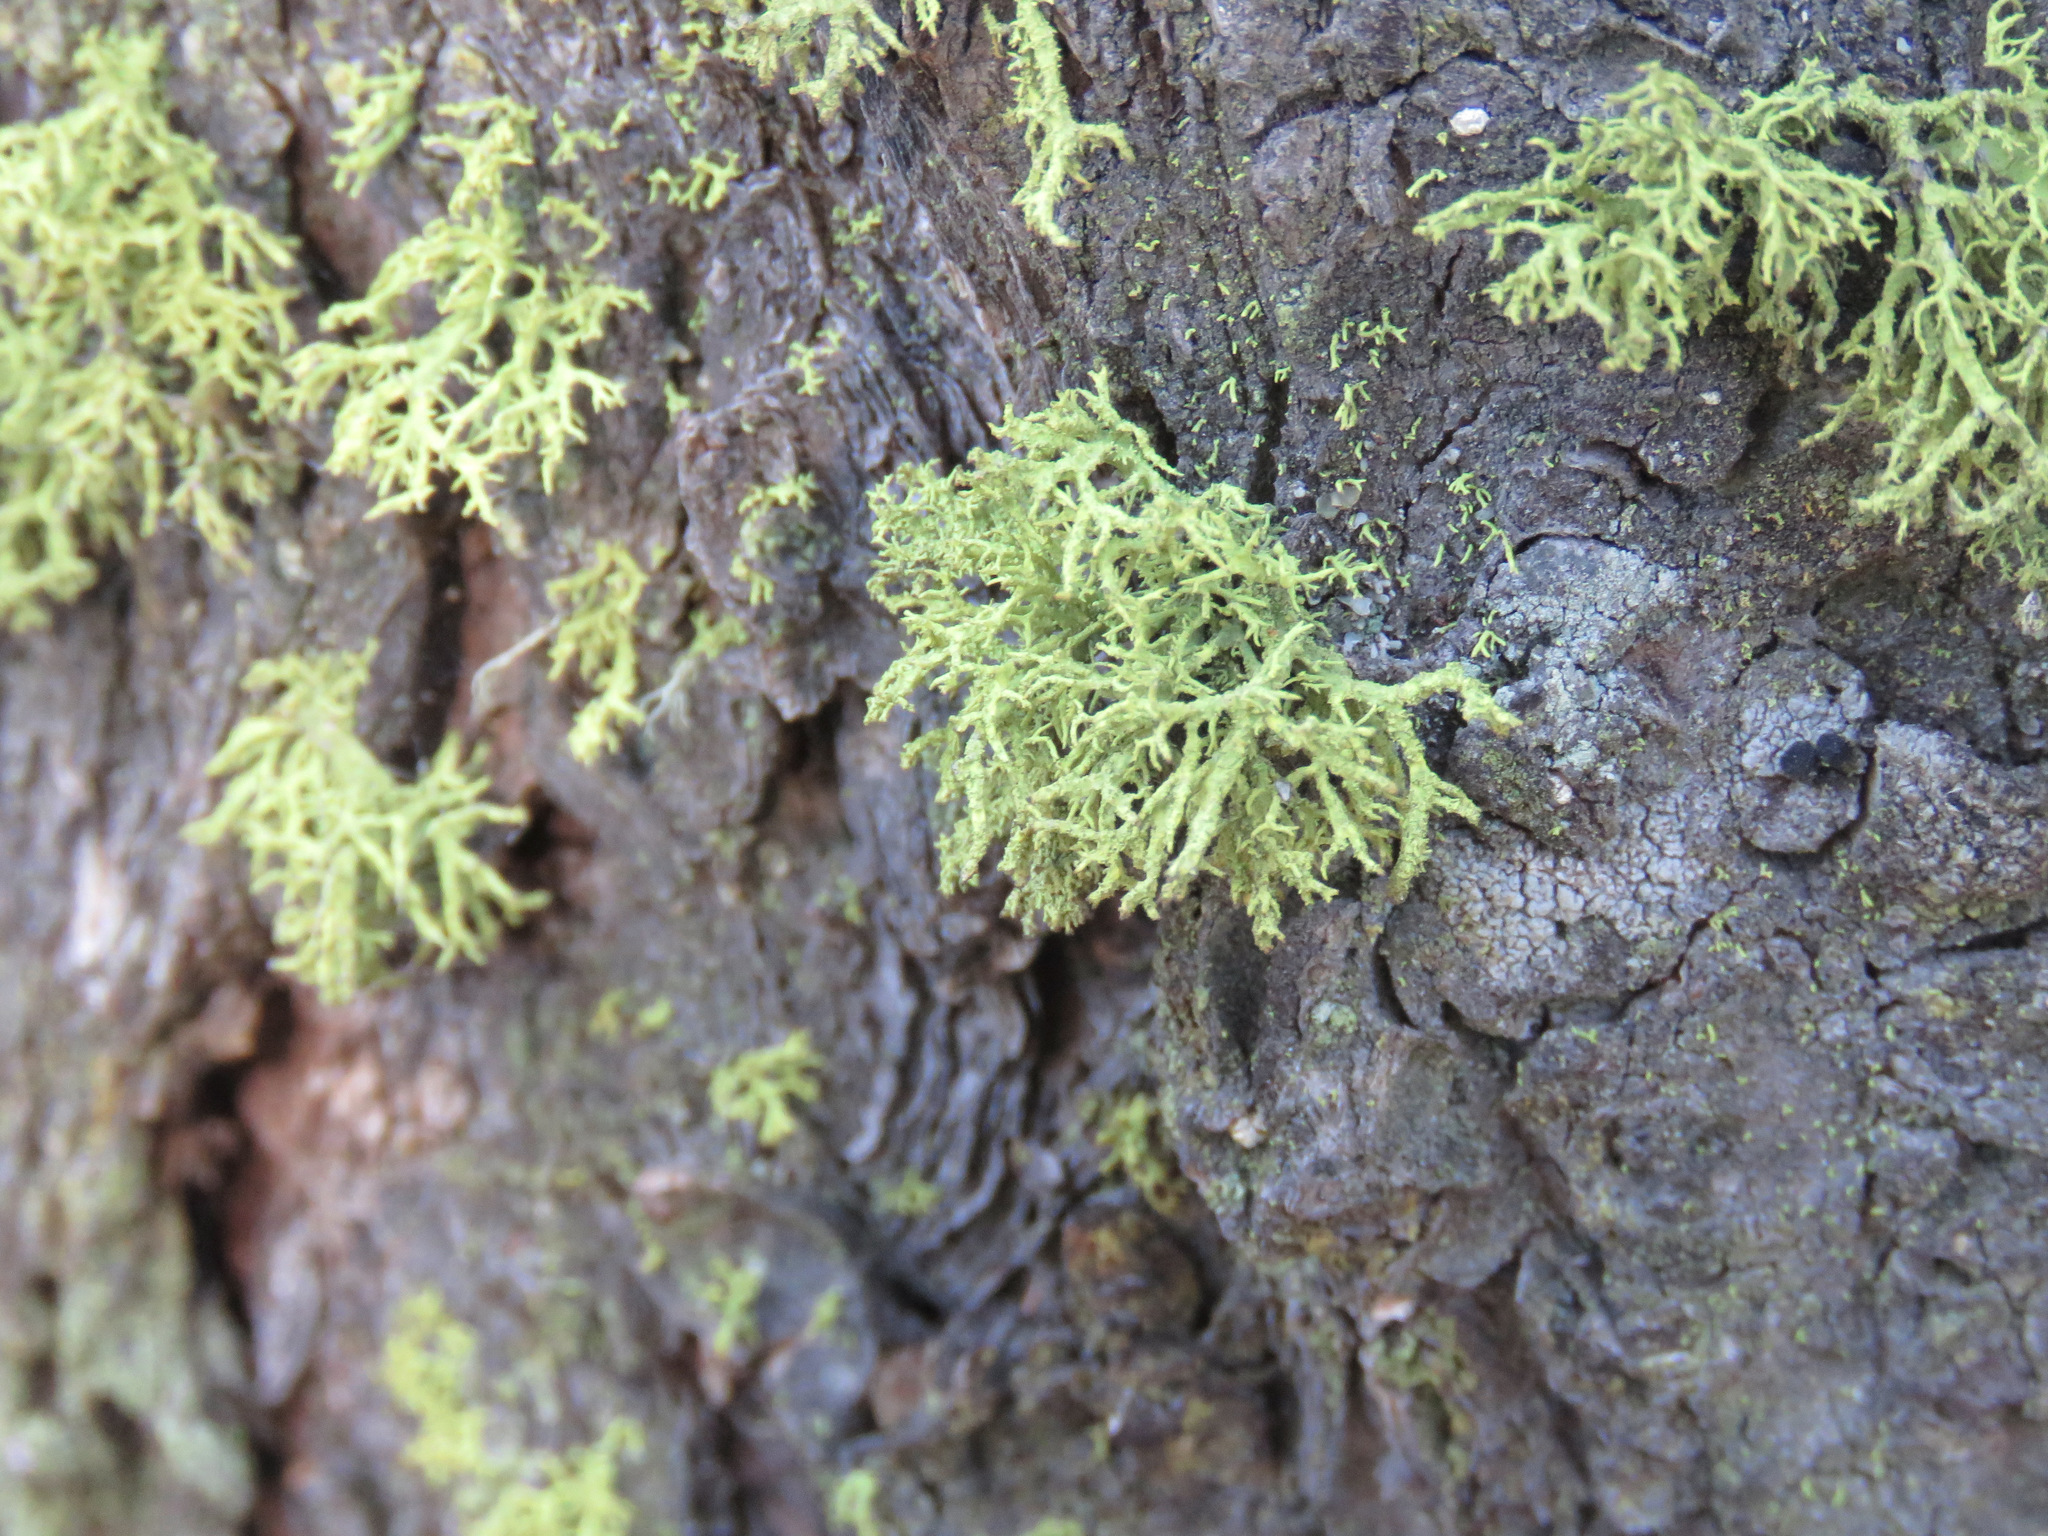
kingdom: Fungi
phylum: Ascomycota
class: Lecanoromycetes
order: Lecanorales
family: Parmeliaceae
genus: Letharia
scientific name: Letharia vulpina
